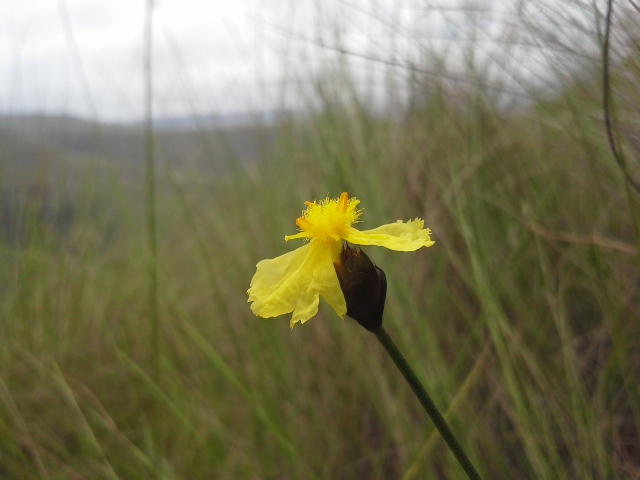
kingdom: Plantae
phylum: Tracheophyta
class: Liliopsida
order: Poales
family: Xyridaceae
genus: Xyris
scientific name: Xyris capensis
